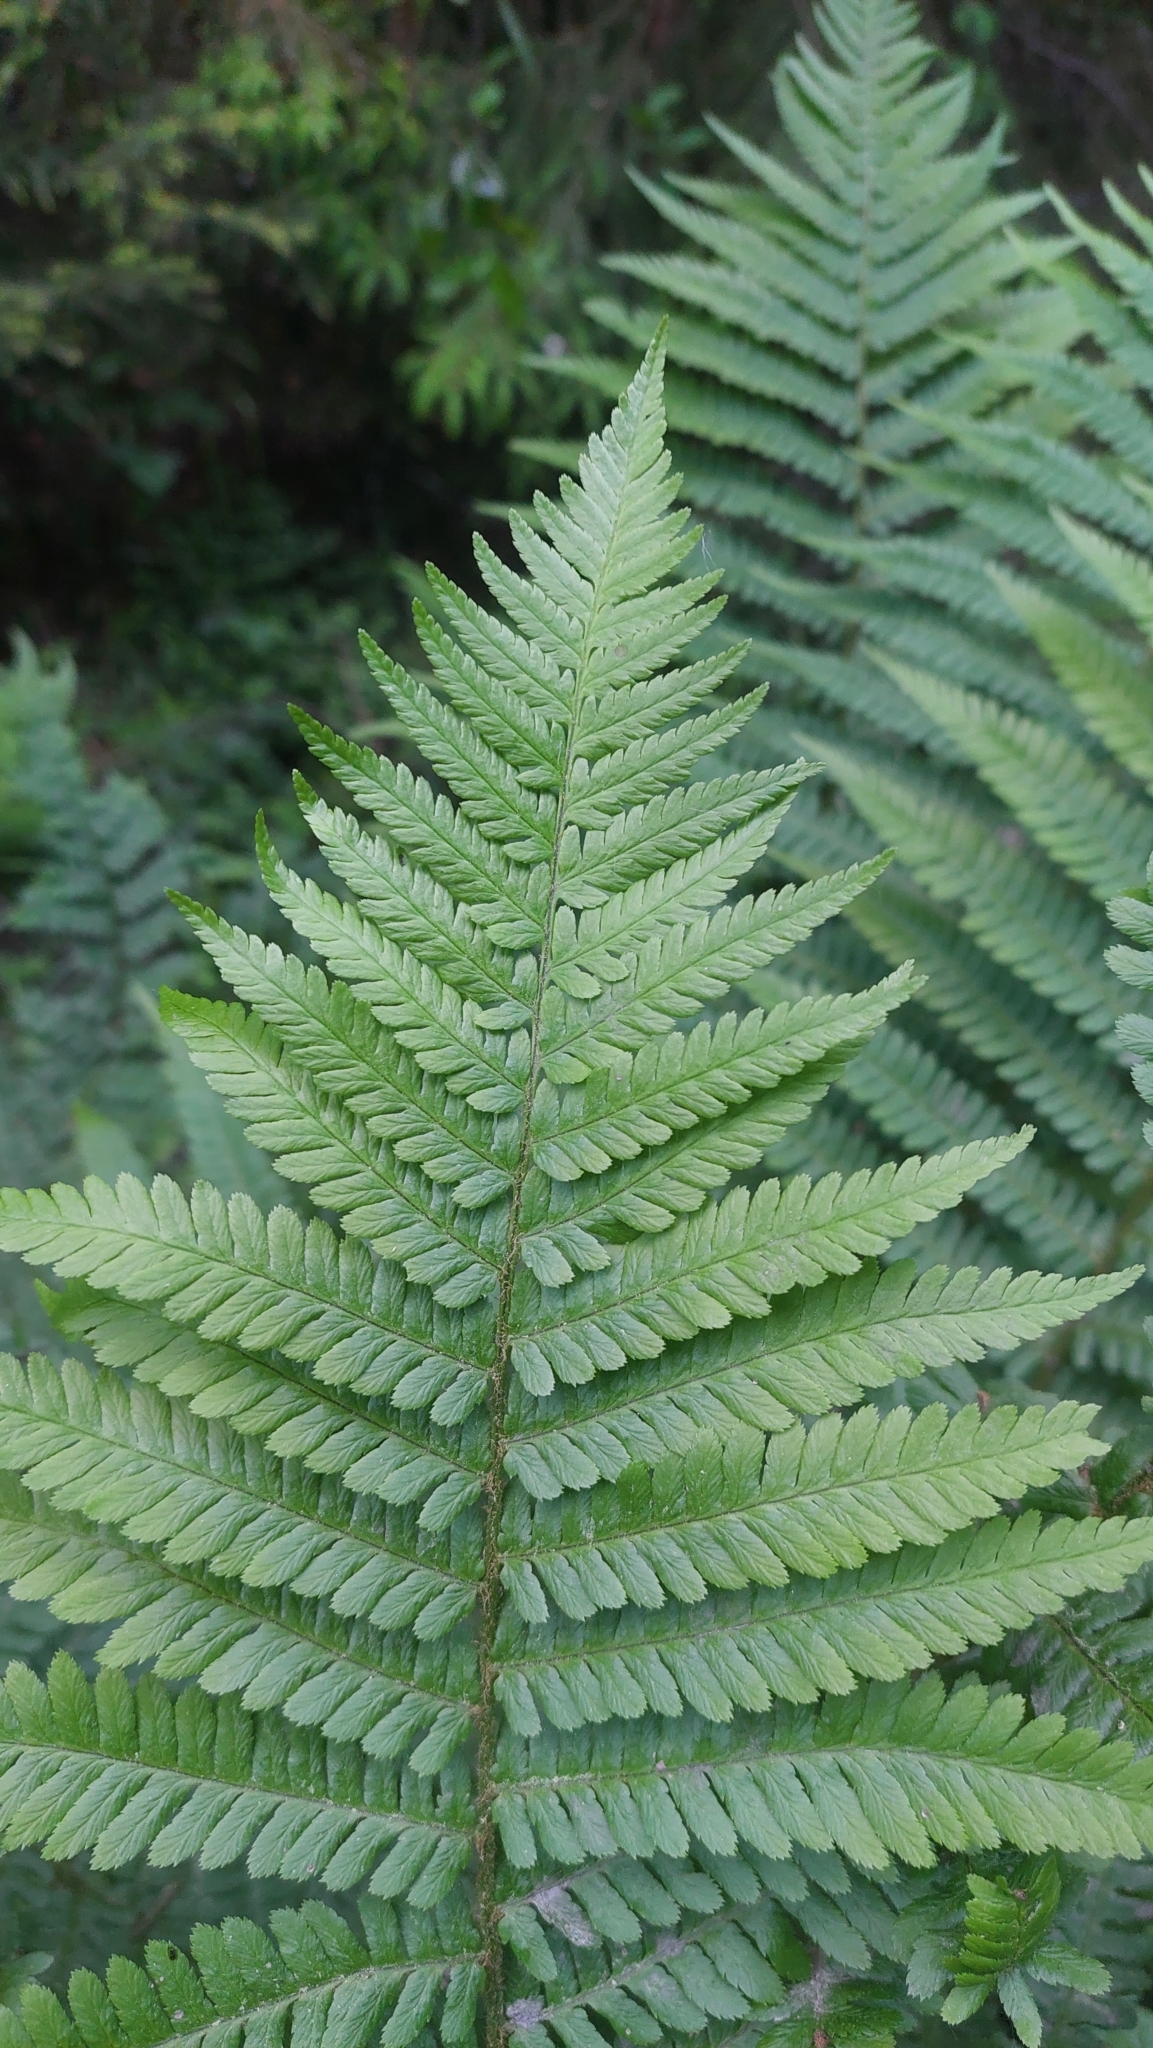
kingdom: Plantae
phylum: Tracheophyta
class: Polypodiopsida
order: Polypodiales
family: Dryopteridaceae
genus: Dryopteris
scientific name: Dryopteris filix-mas
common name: Male fern
